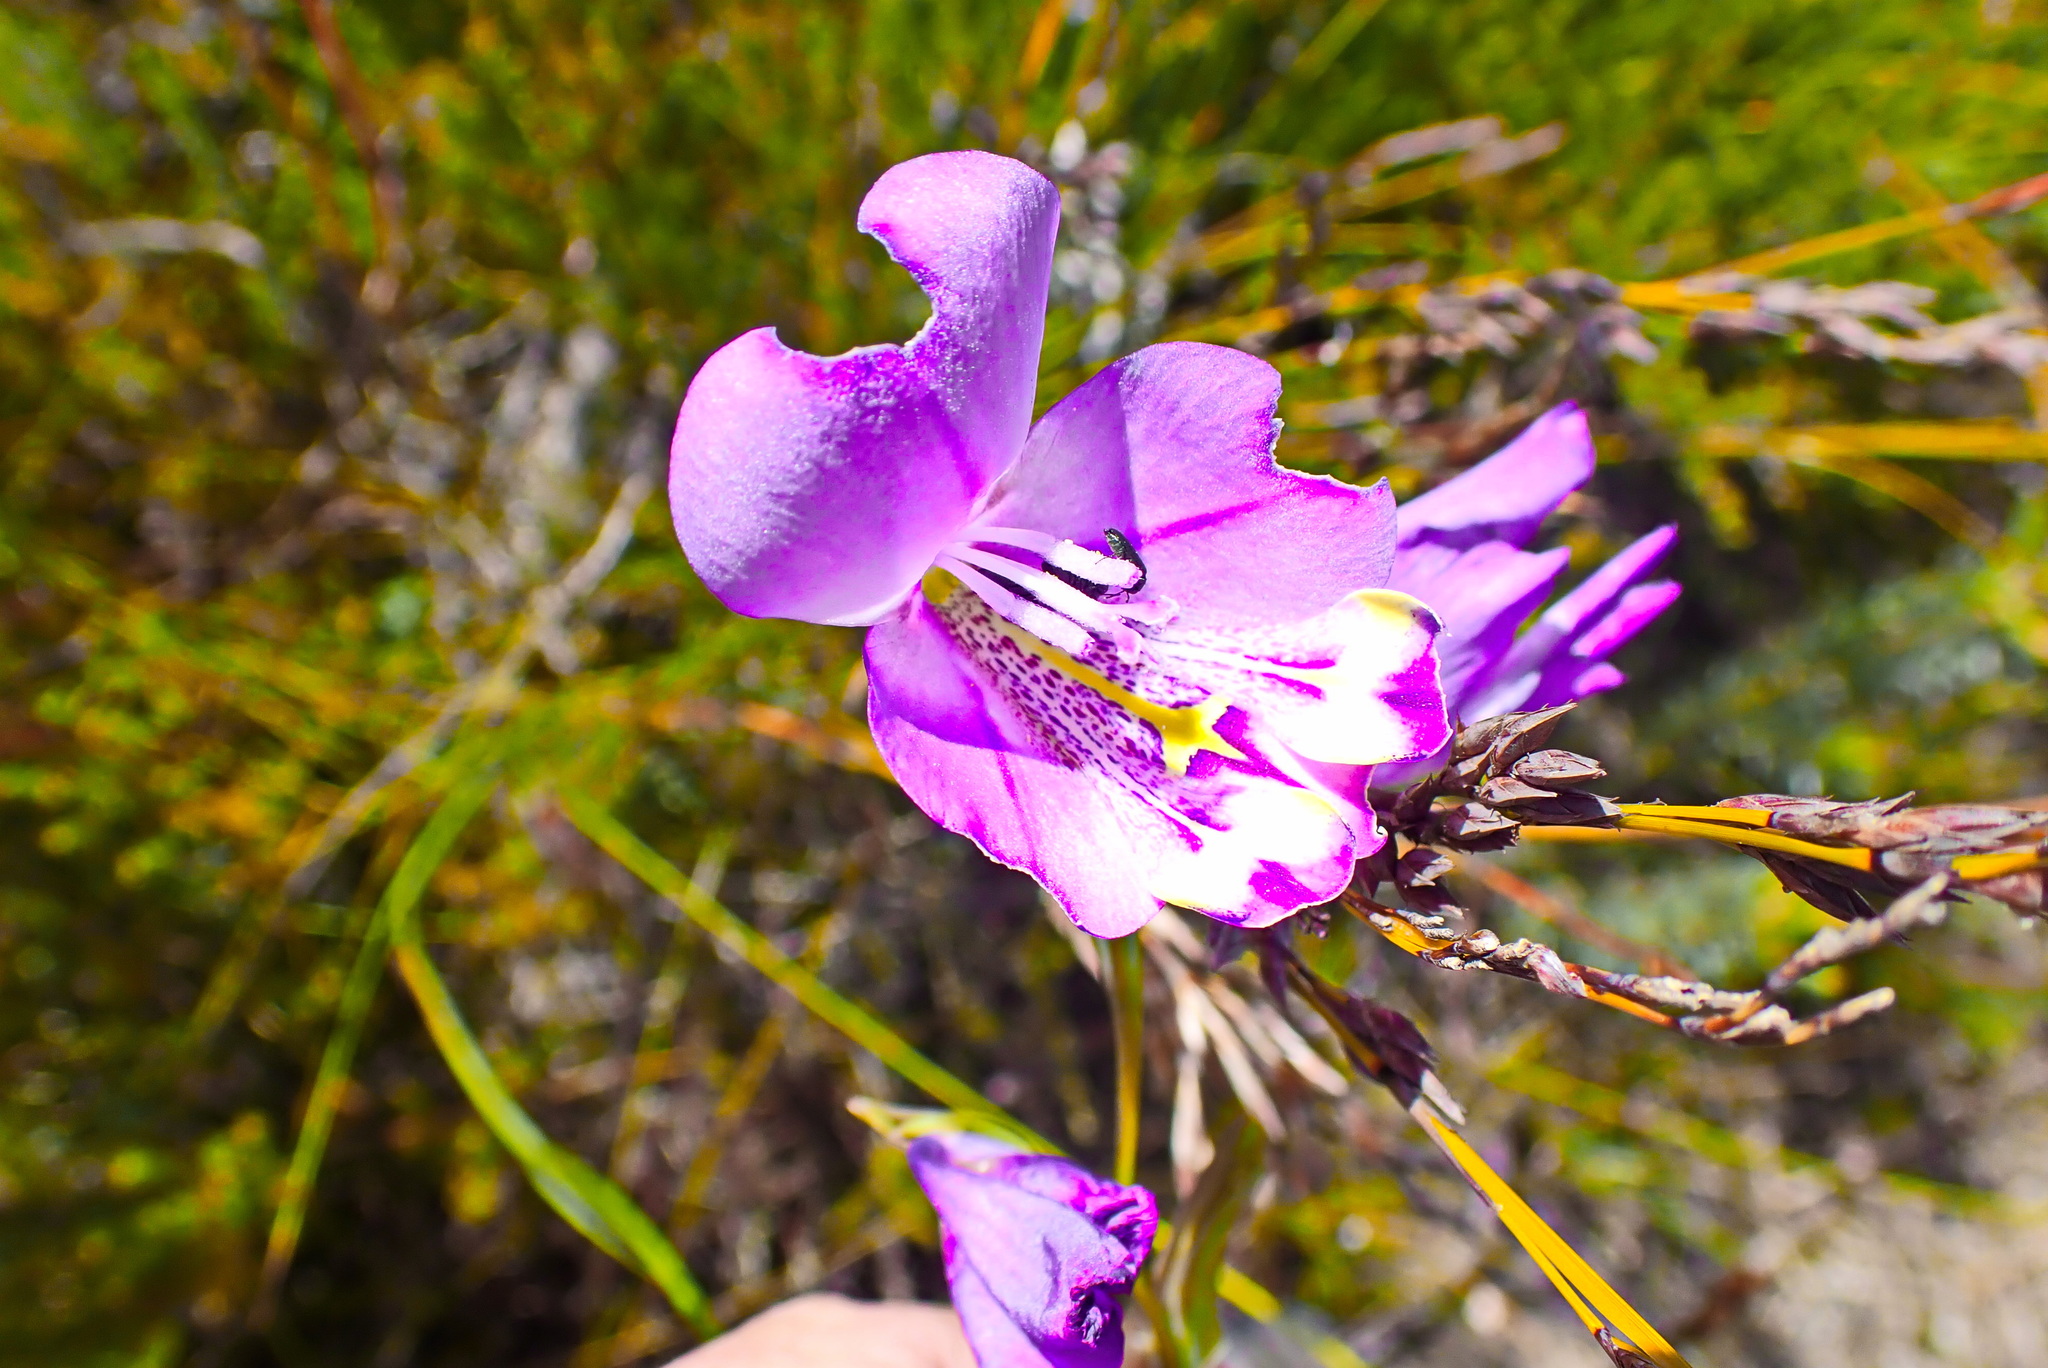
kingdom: Plantae
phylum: Tracheophyta
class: Liliopsida
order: Asparagales
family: Iridaceae
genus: Gladiolus
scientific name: Gladiolus rogersii
